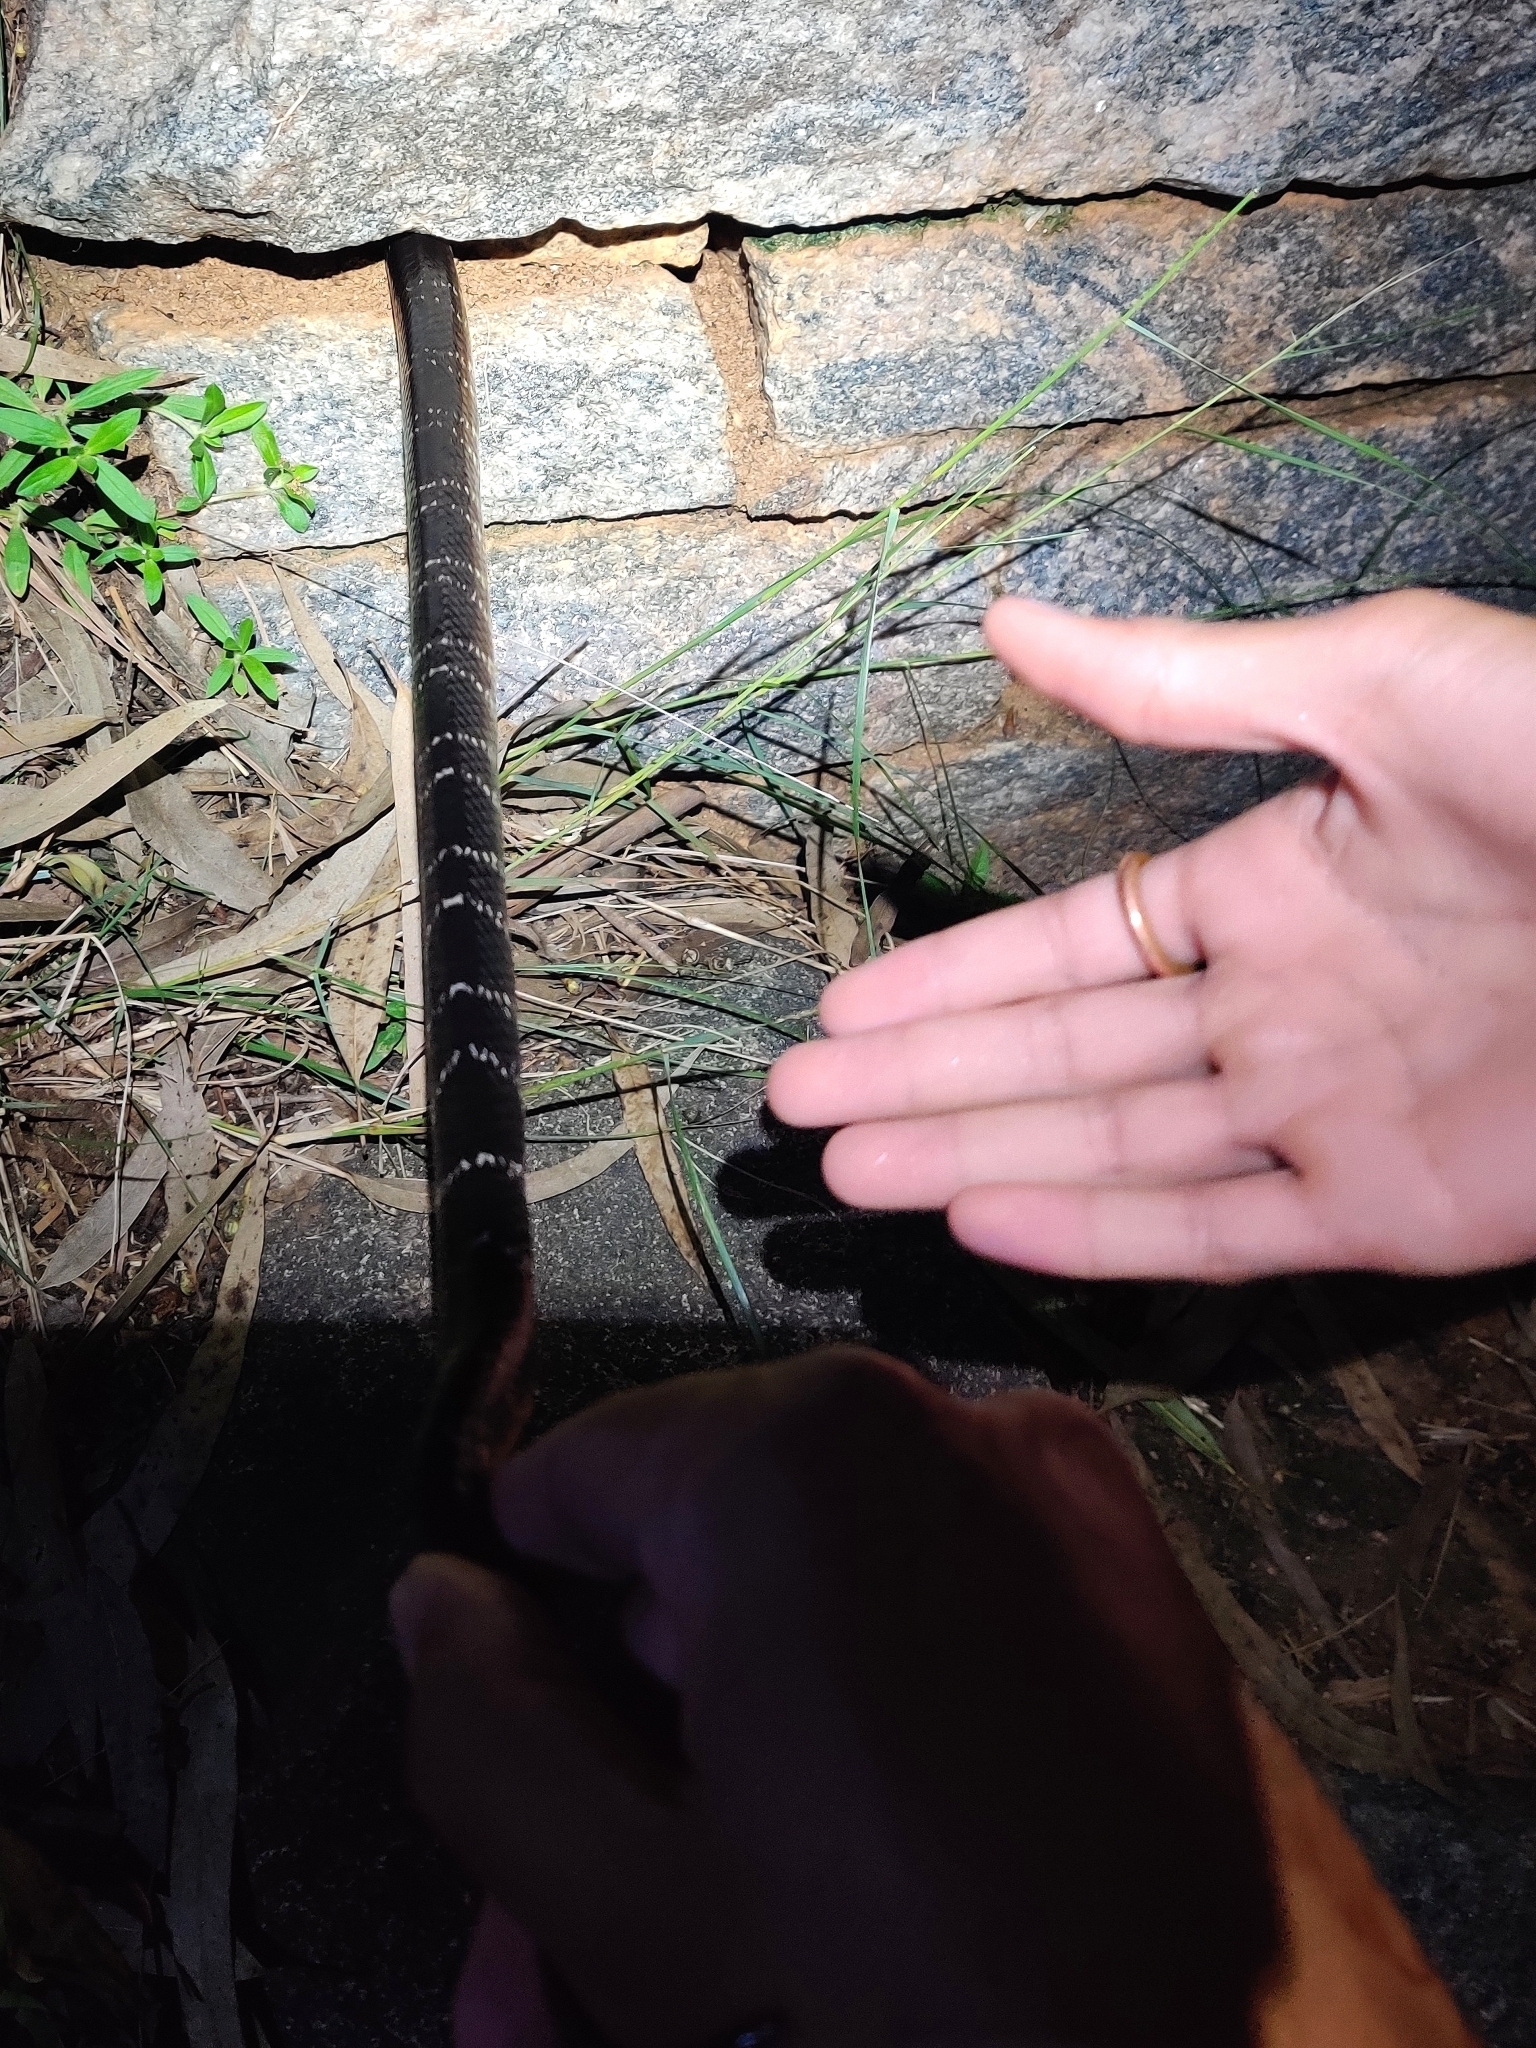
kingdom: Animalia
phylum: Chordata
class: Squamata
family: Elapidae
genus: Bungarus
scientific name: Bungarus caeruleus
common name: Common krait
